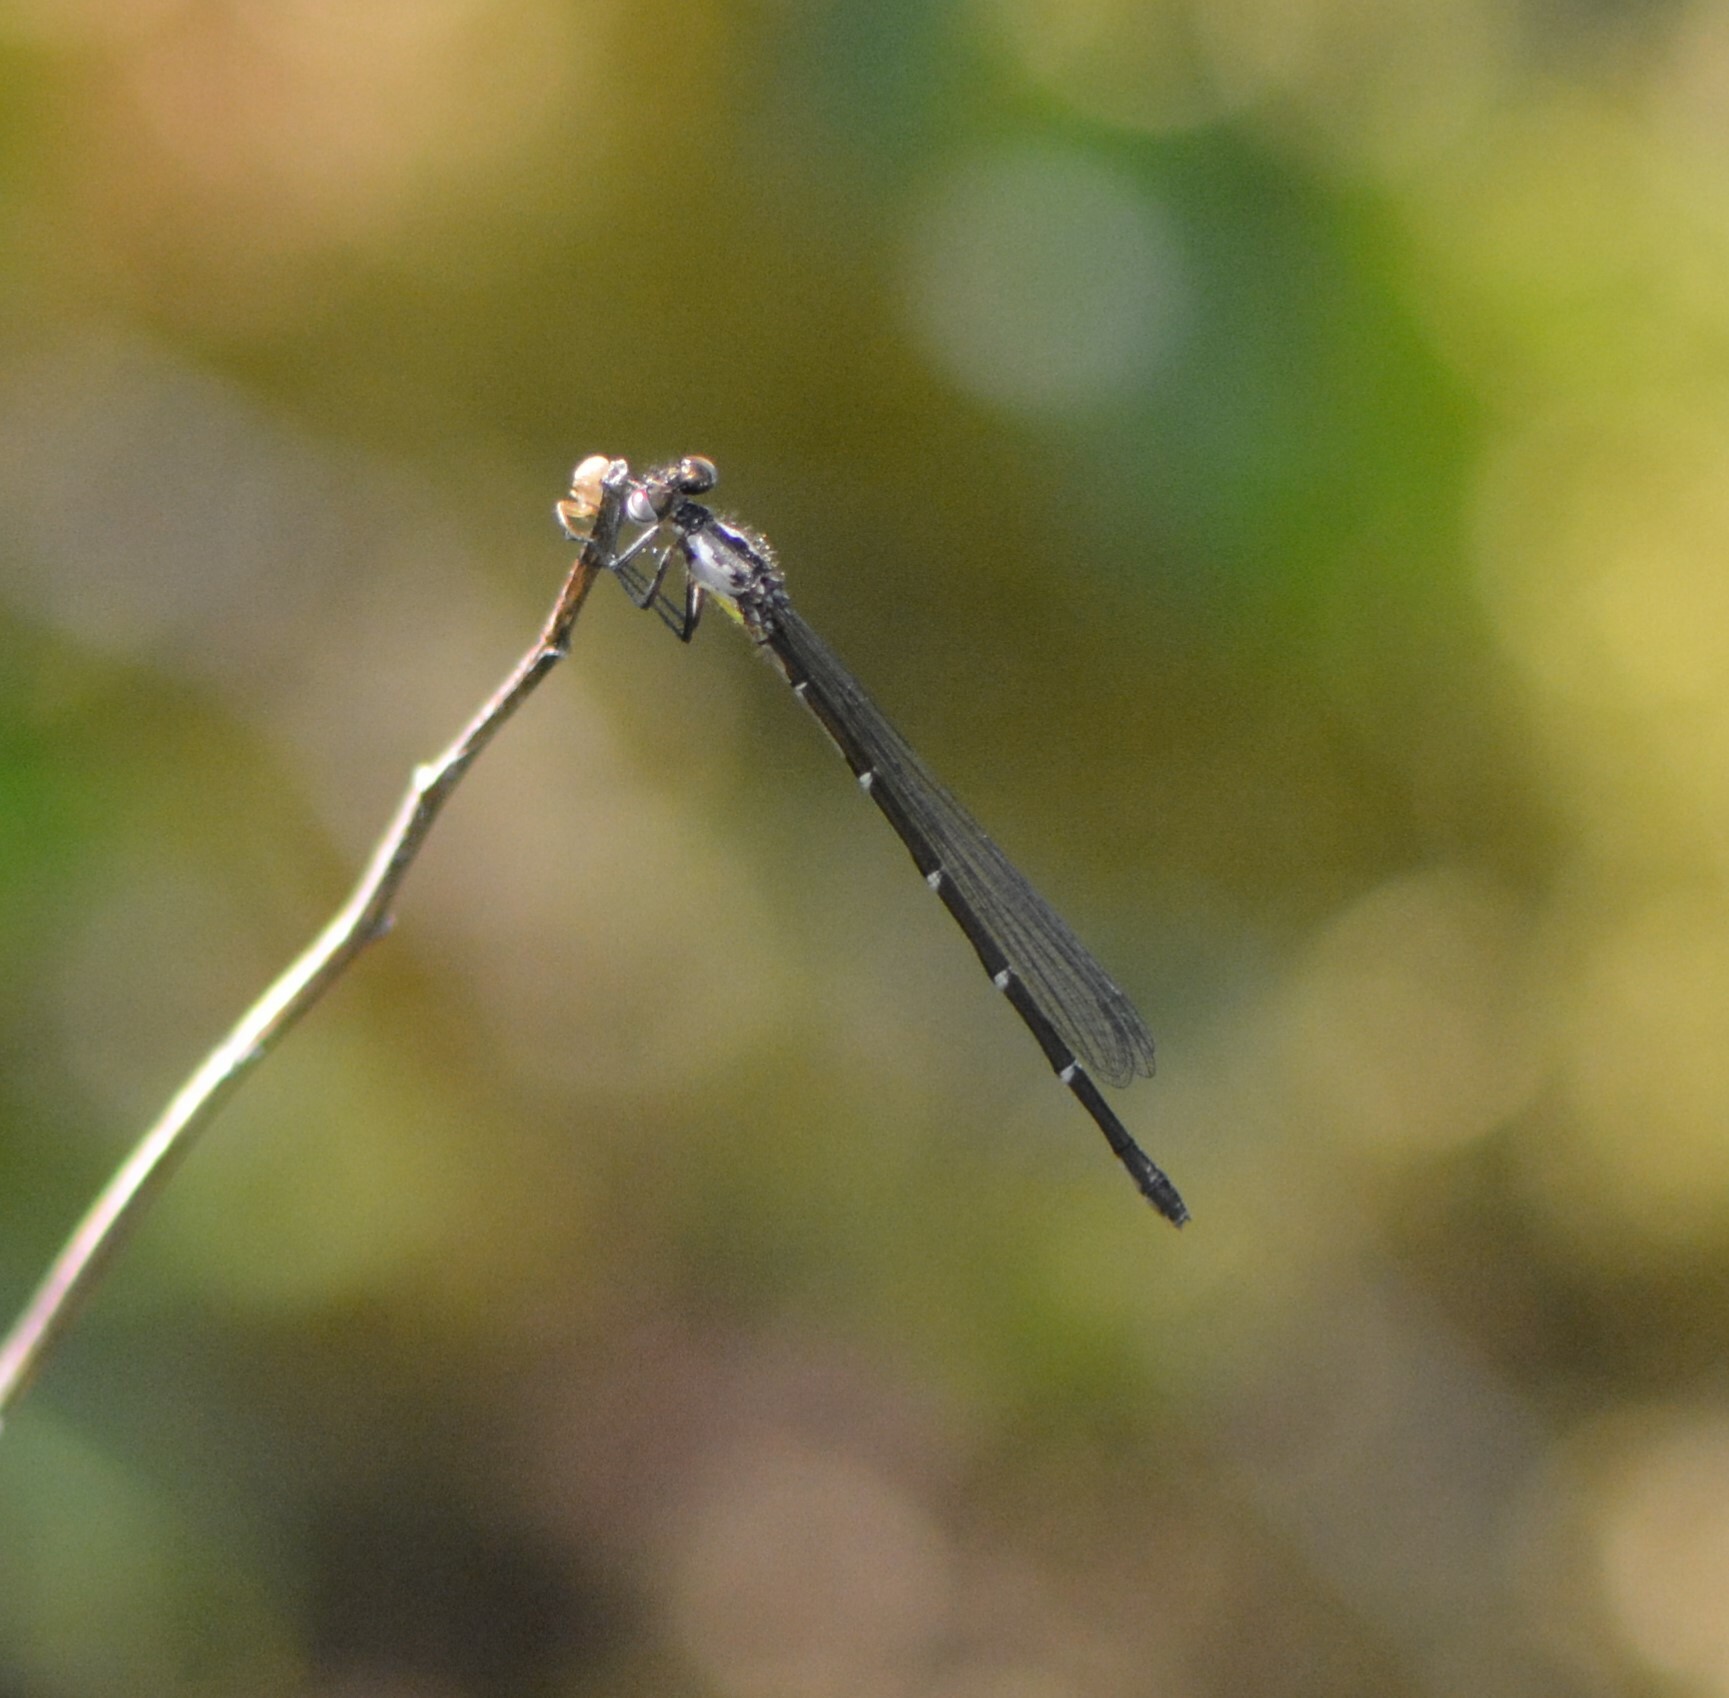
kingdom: Animalia
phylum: Arthropoda
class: Insecta
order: Odonata
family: Coenagrionidae
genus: Chromagrion
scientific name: Chromagrion conditum
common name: Aurora damsel
